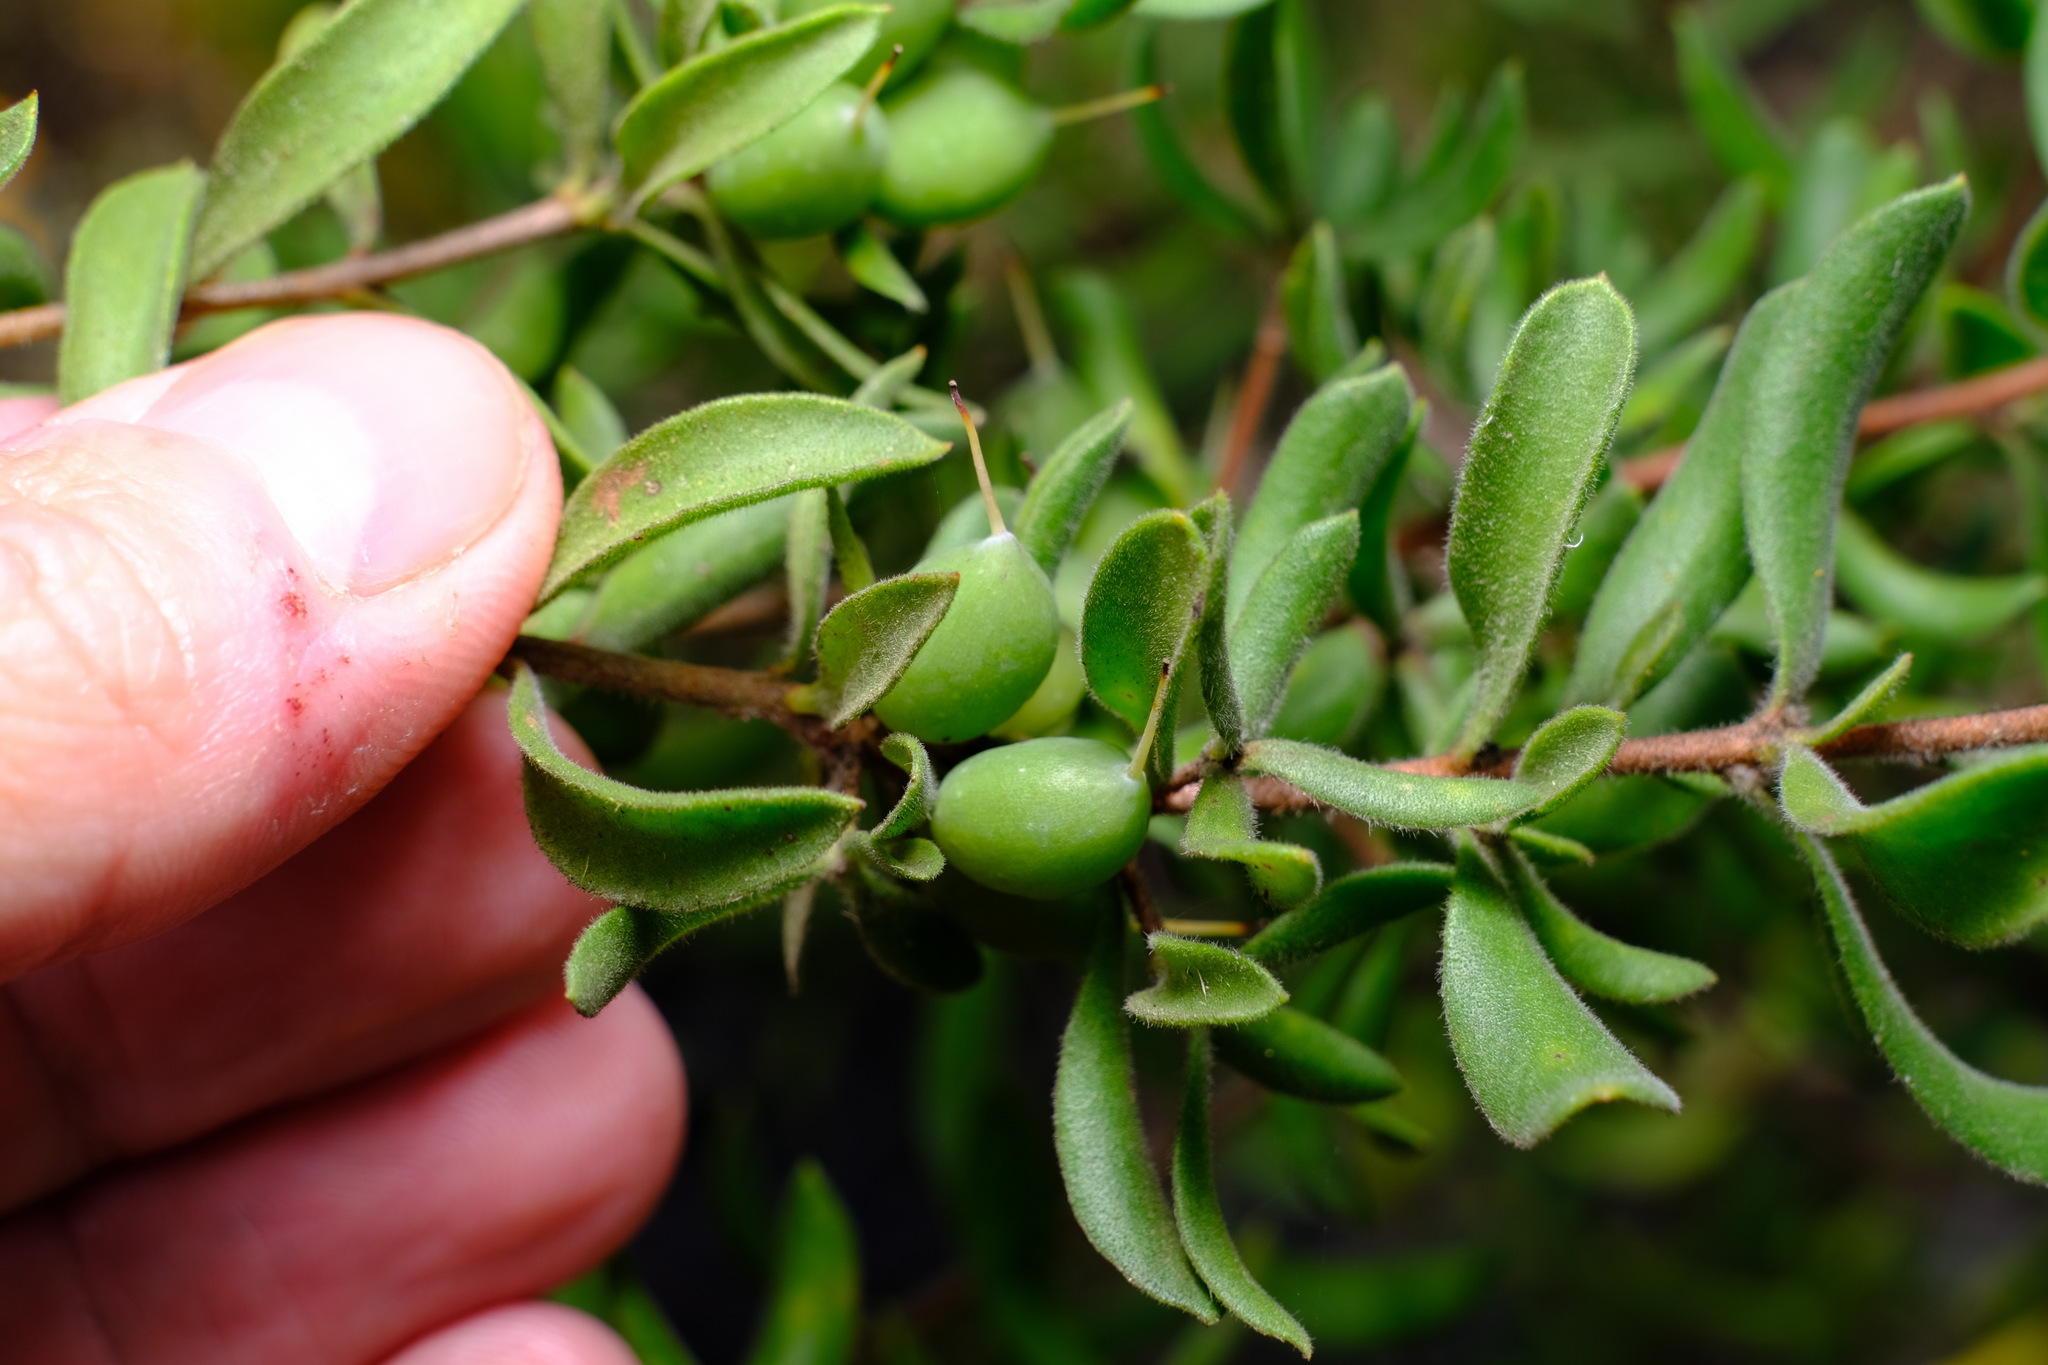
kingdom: Plantae
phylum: Tracheophyta
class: Magnoliopsida
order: Proteales
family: Proteaceae
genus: Persoonia
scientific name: Persoonia rigida
